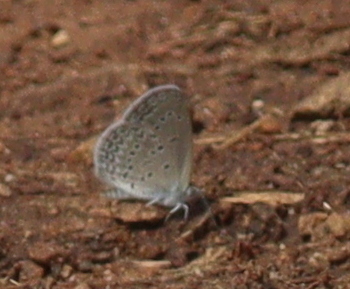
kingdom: Animalia
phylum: Arthropoda
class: Insecta
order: Lepidoptera
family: Lycaenidae
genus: Zizina
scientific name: Zizina antanossa
